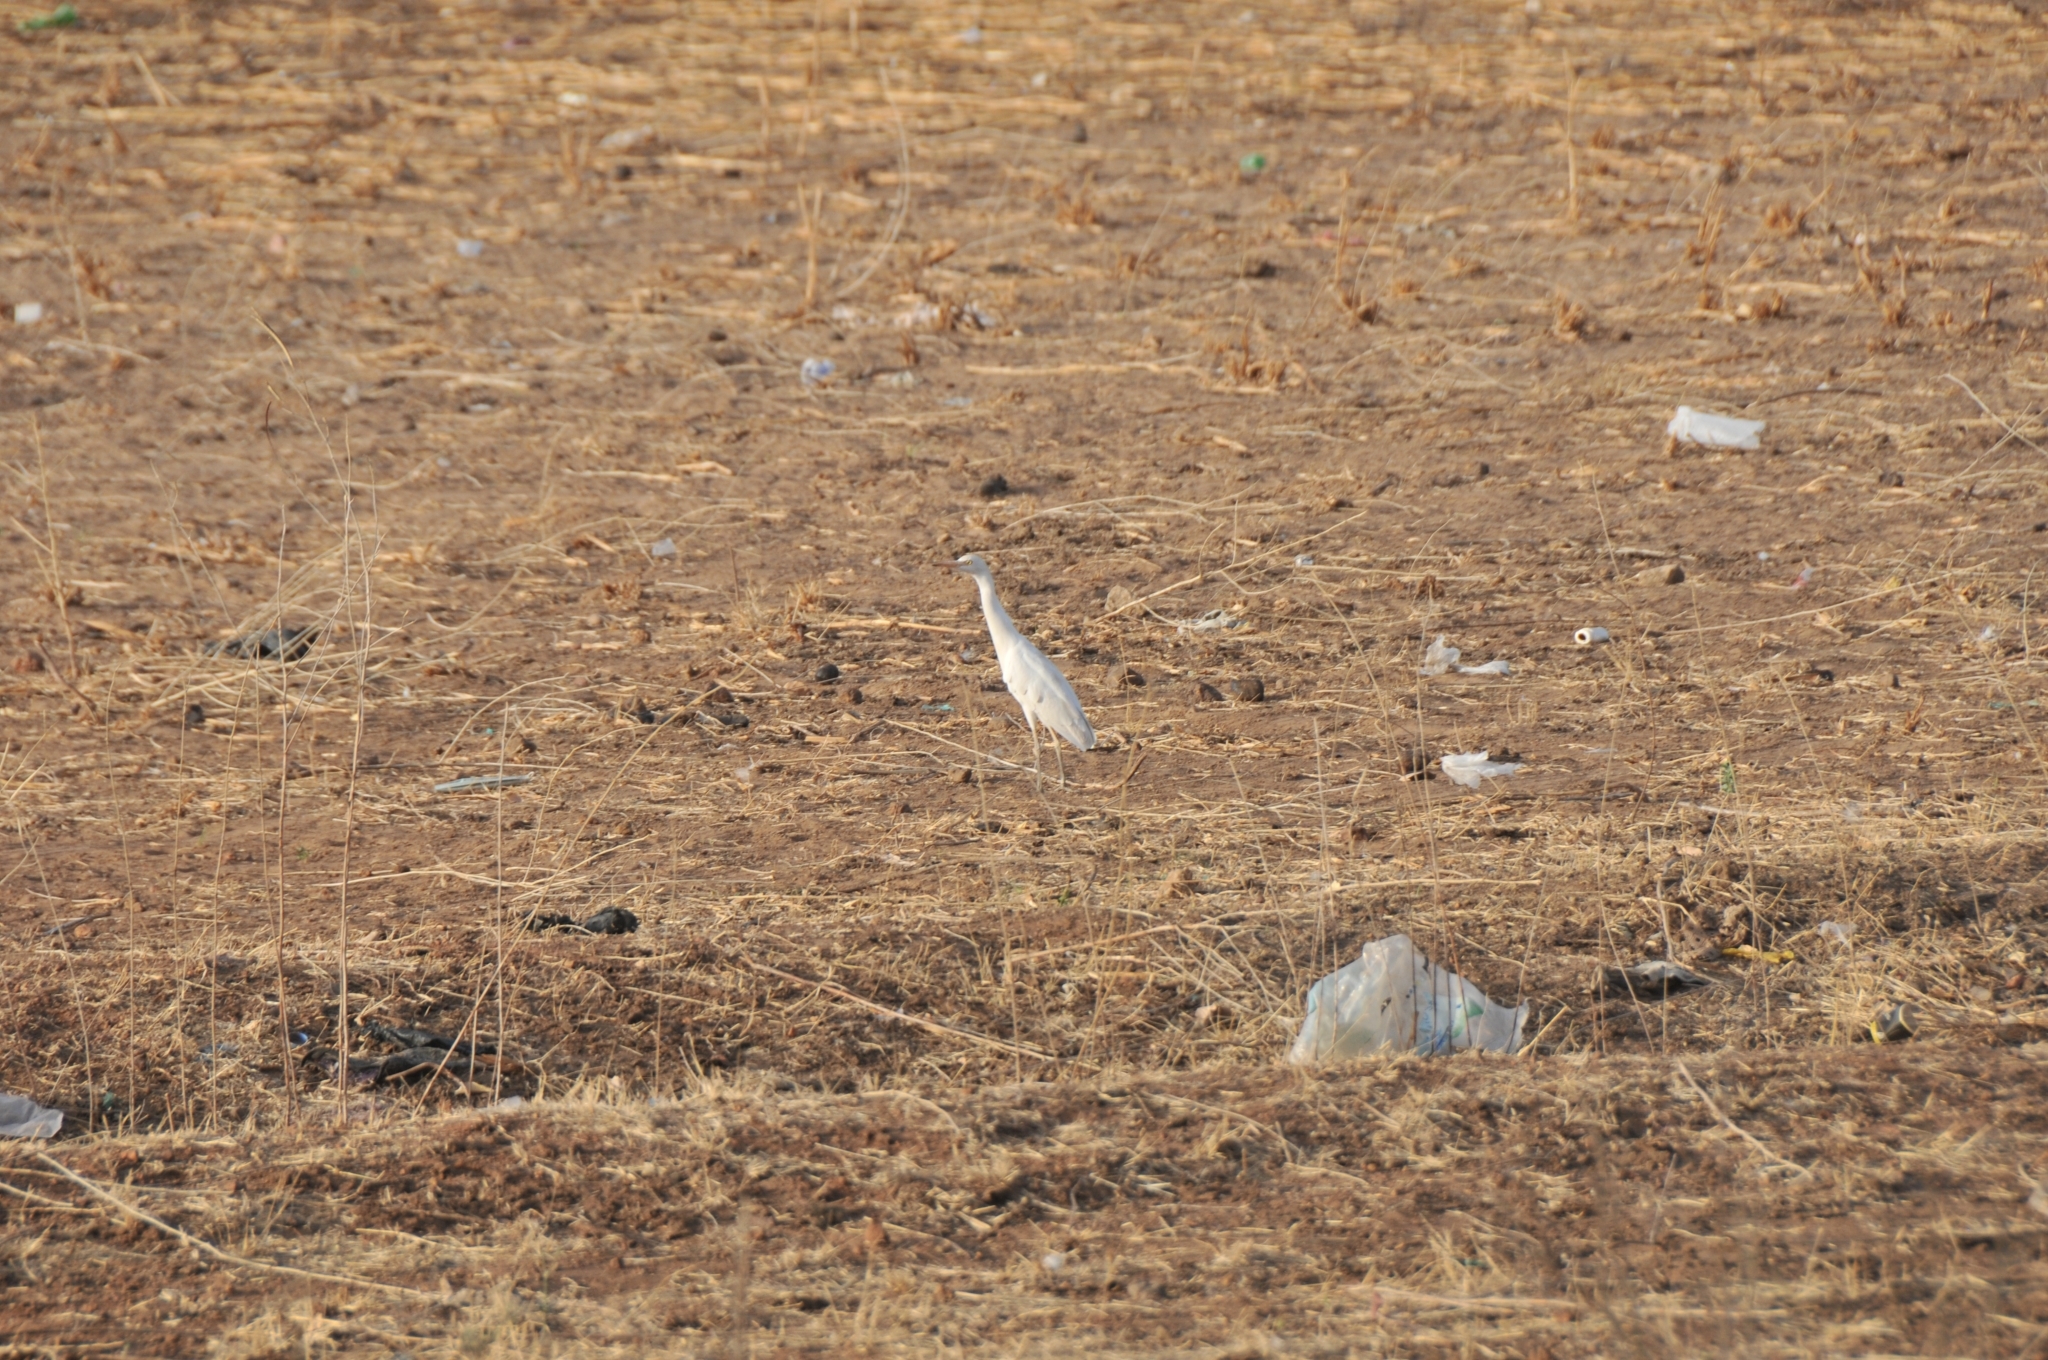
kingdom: Animalia
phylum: Chordata
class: Aves
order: Pelecaniformes
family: Ardeidae
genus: Bubulcus
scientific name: Bubulcus ibis
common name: Cattle egret
